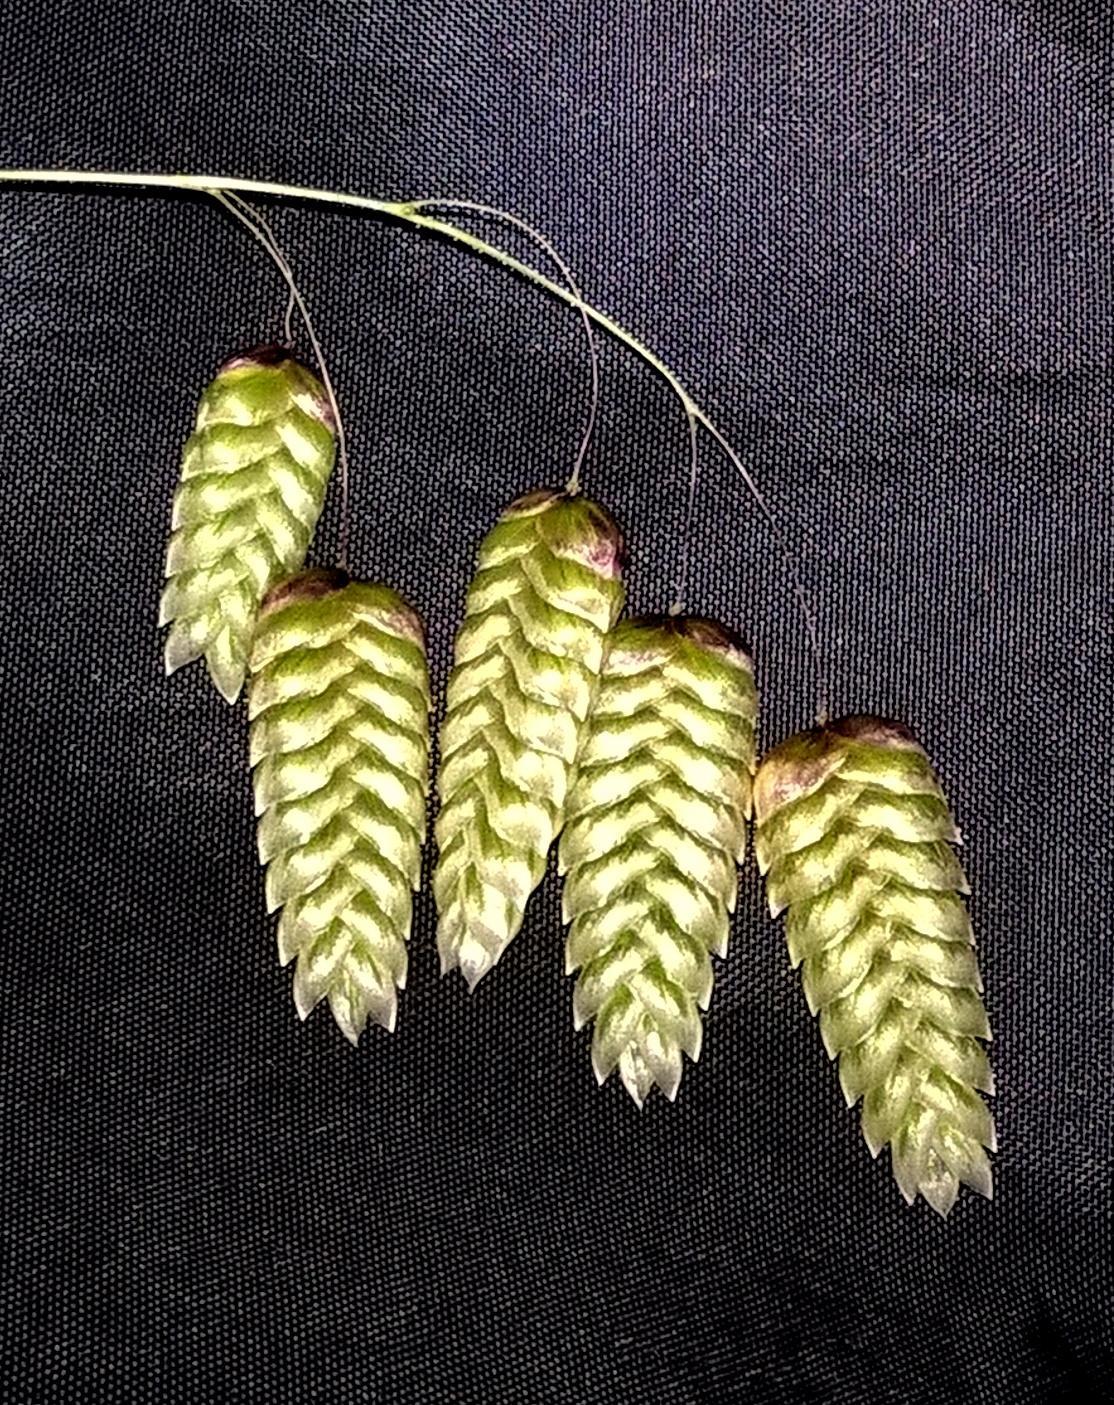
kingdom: Plantae
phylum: Tracheophyta
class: Liliopsida
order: Poales
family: Poaceae
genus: Briza
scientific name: Briza maxima
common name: Big quakinggrass
